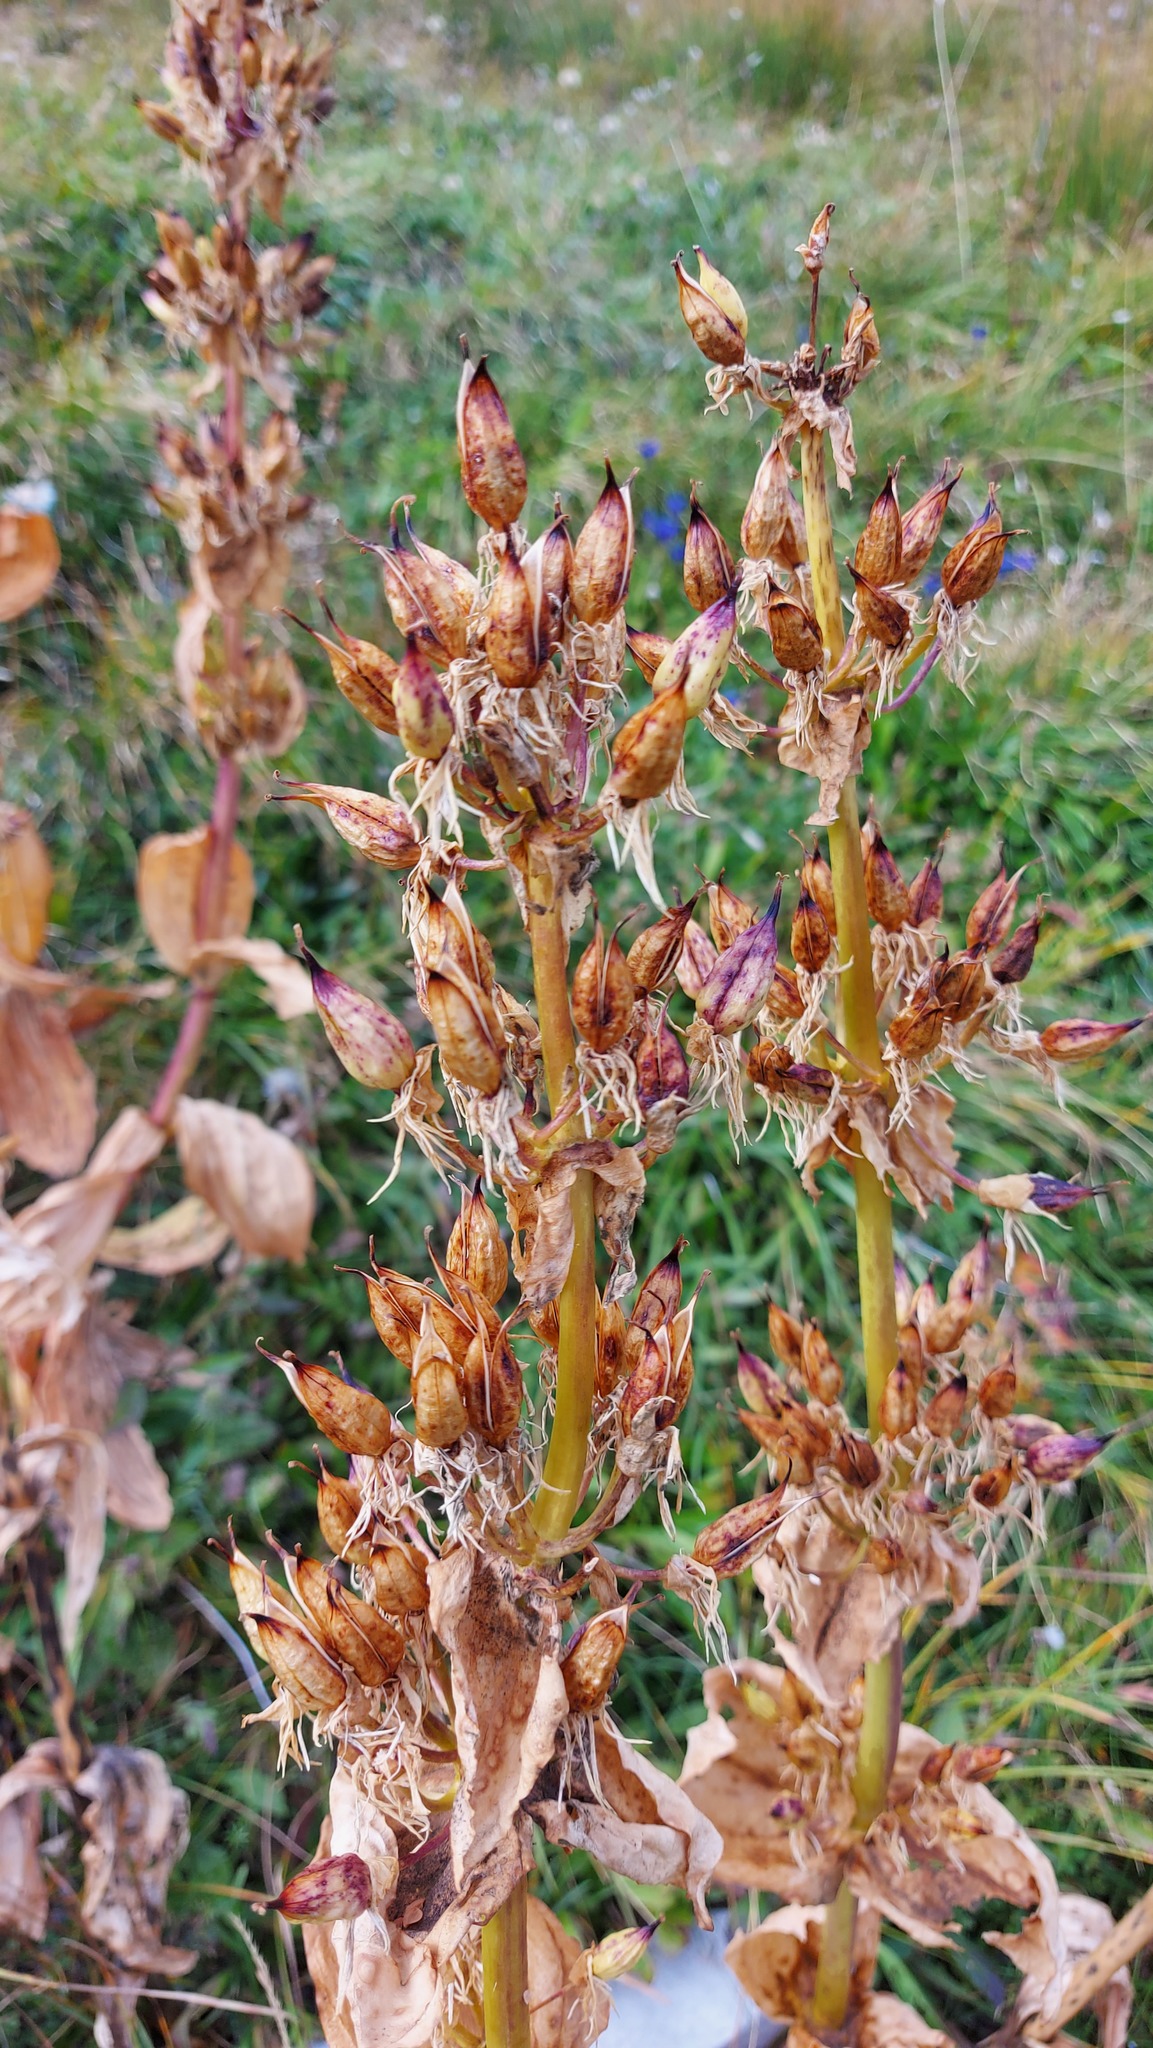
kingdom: Plantae
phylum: Tracheophyta
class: Magnoliopsida
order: Gentianales
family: Gentianaceae
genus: Gentiana
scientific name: Gentiana lutea
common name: Great yellow gentian
